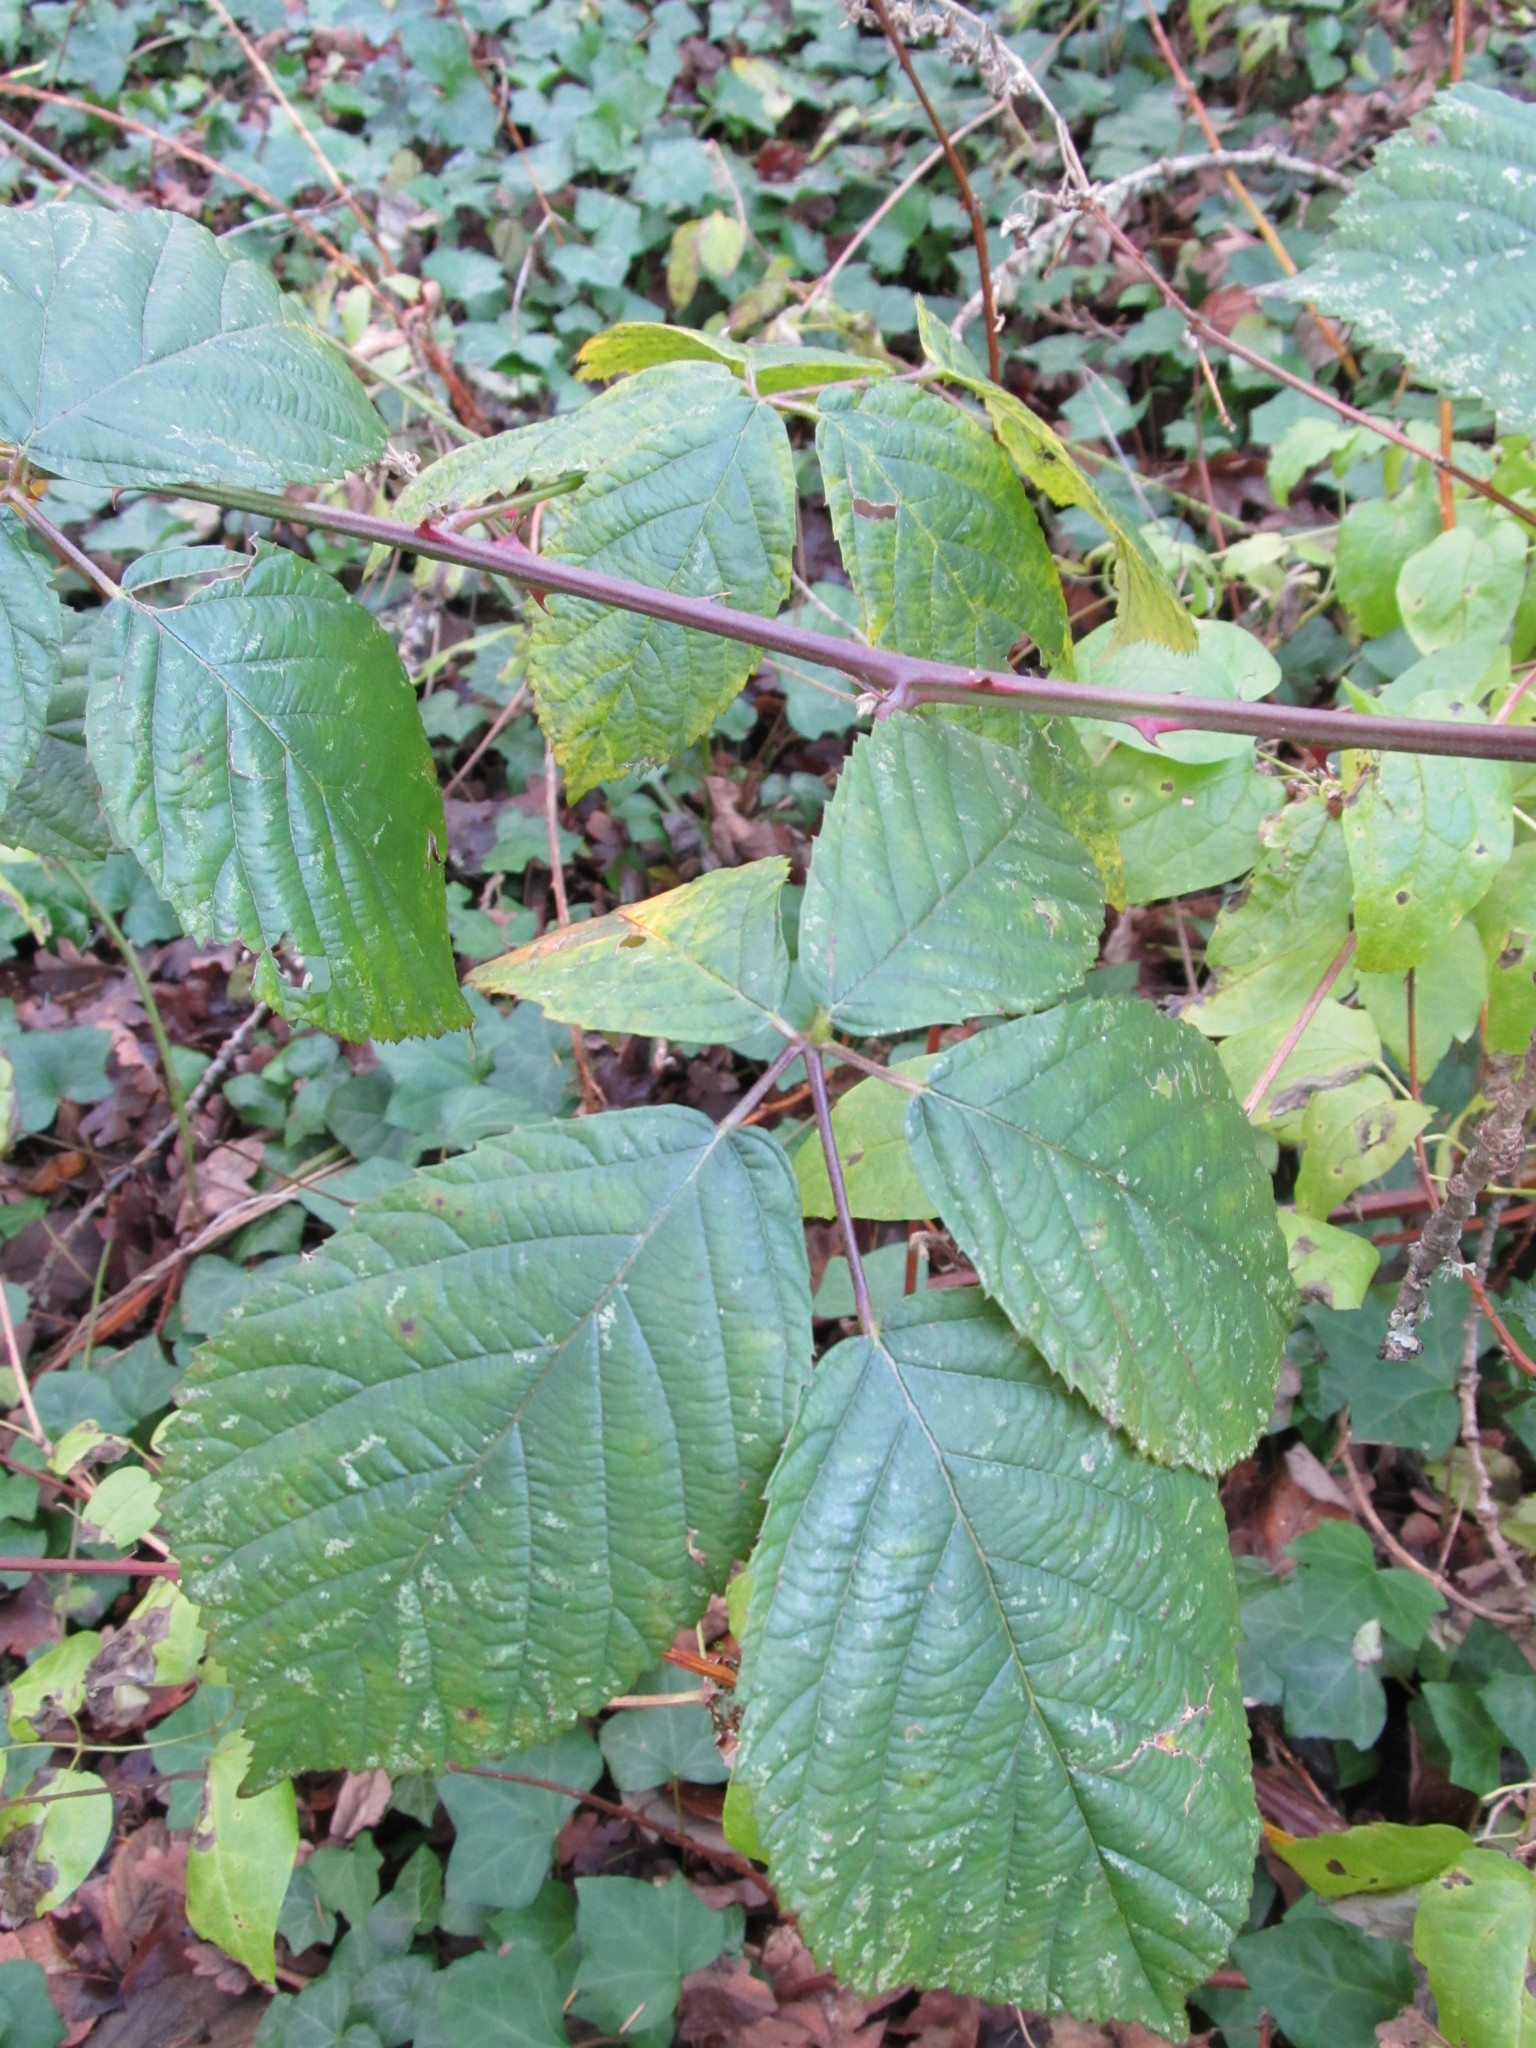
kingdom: Plantae
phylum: Tracheophyta
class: Magnoliopsida
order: Rosales
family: Rosaceae
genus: Rubus
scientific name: Rubus armeniacus
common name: Himalayan blackberry
